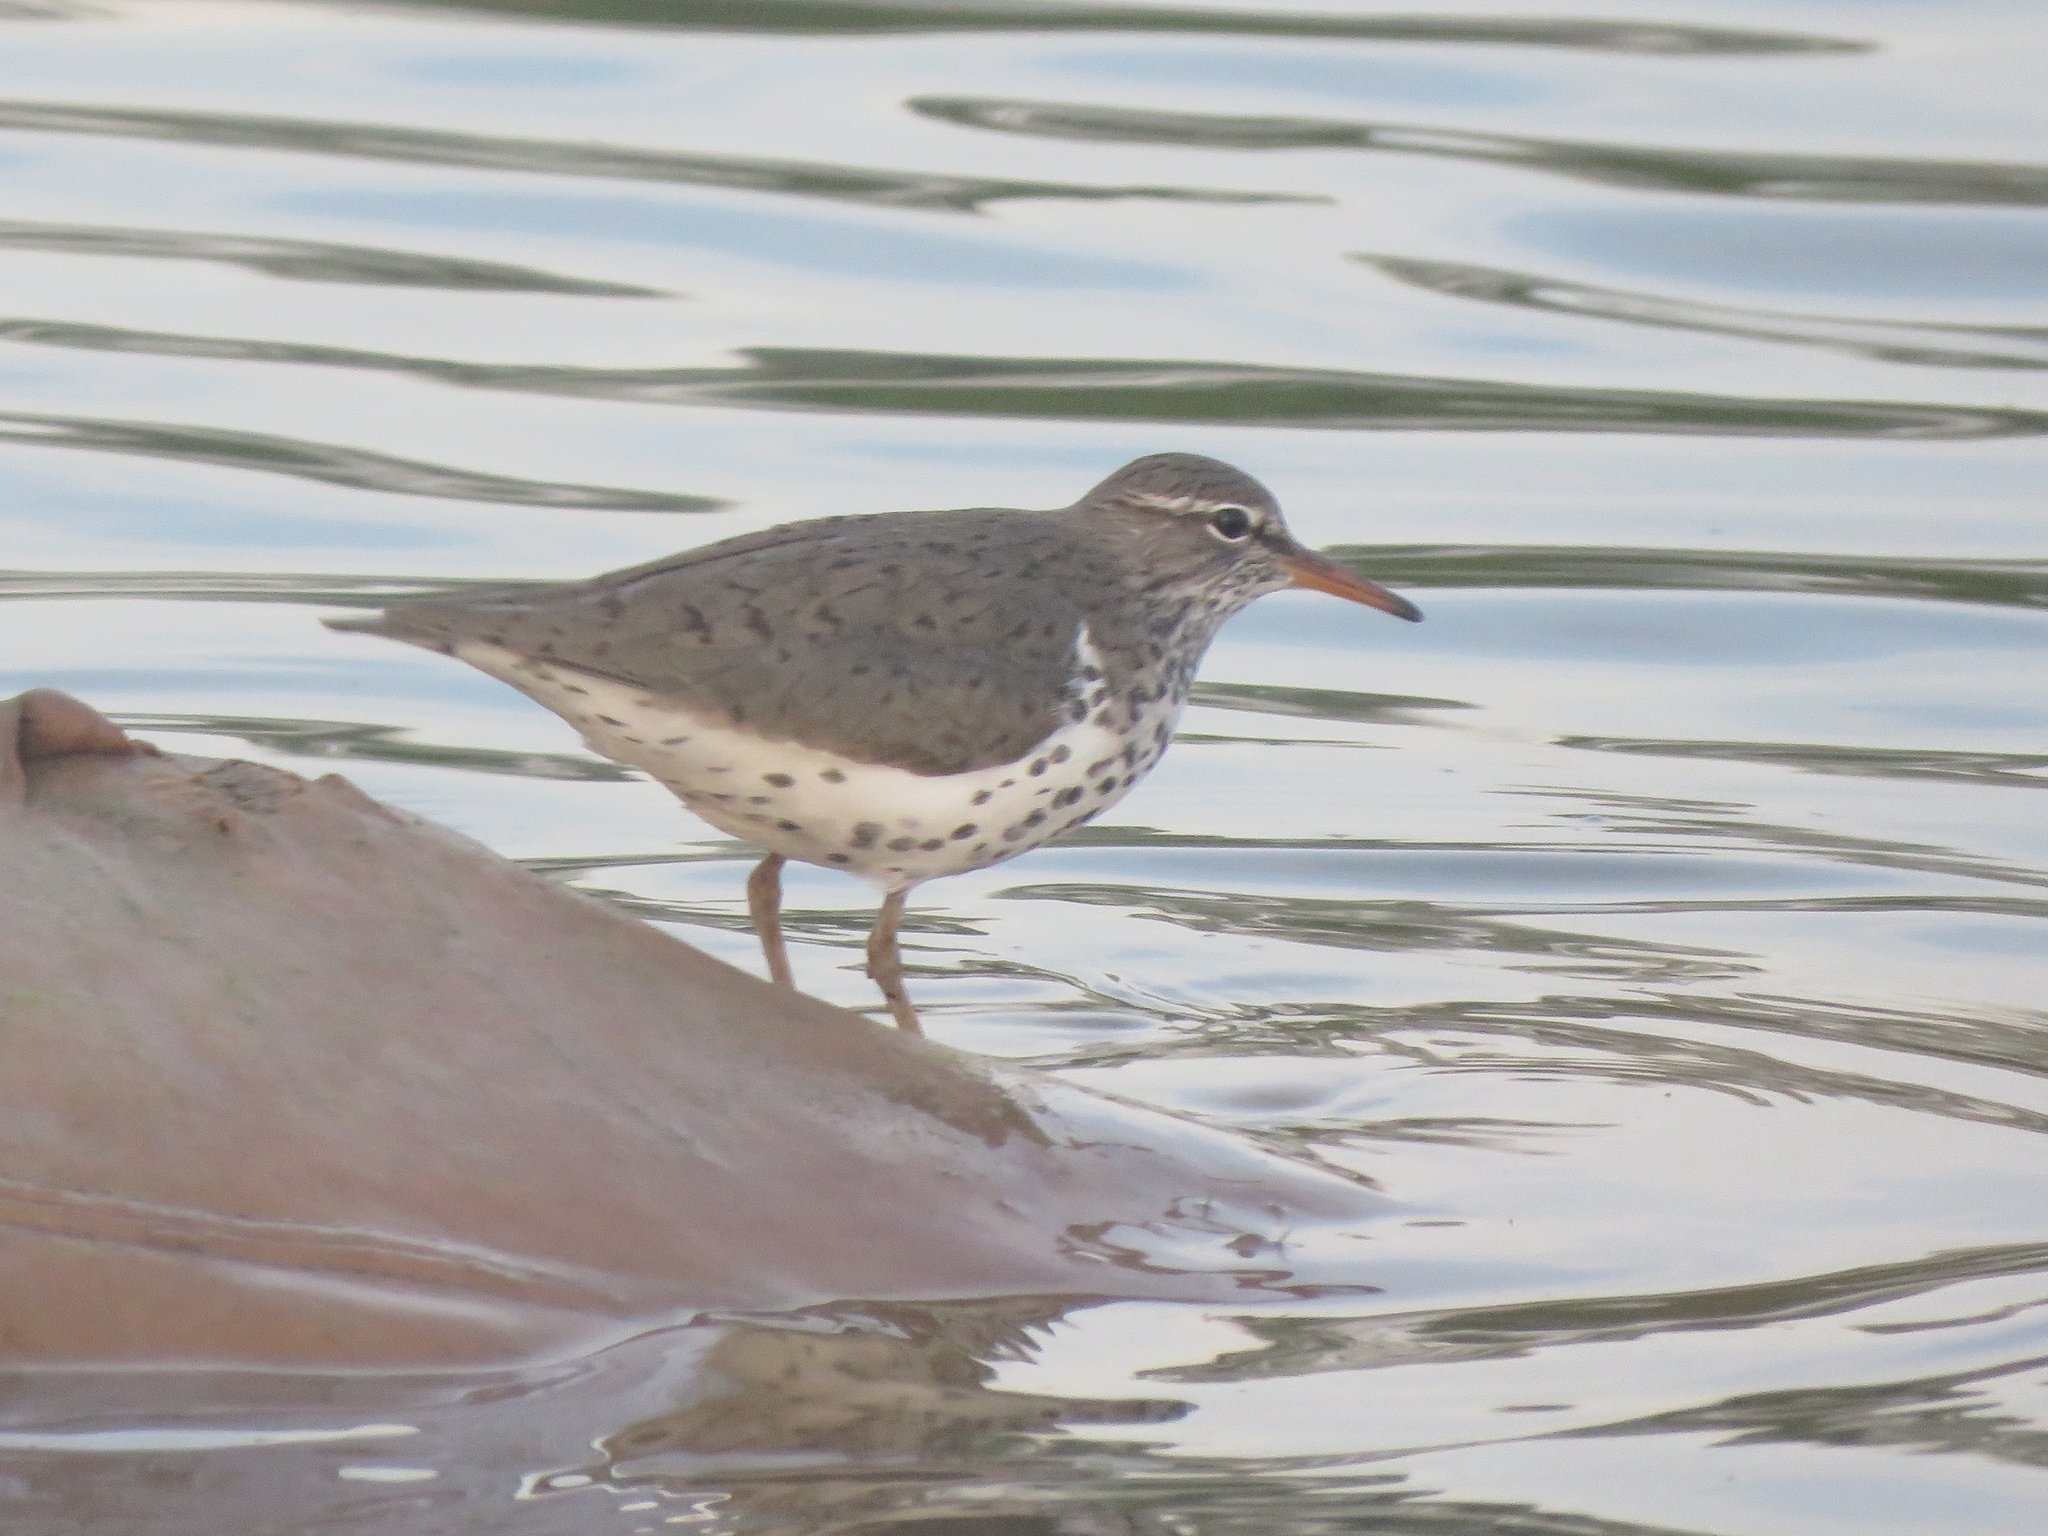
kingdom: Animalia
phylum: Chordata
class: Aves
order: Charadriiformes
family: Scolopacidae
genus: Actitis
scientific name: Actitis macularius
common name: Spotted sandpiper
